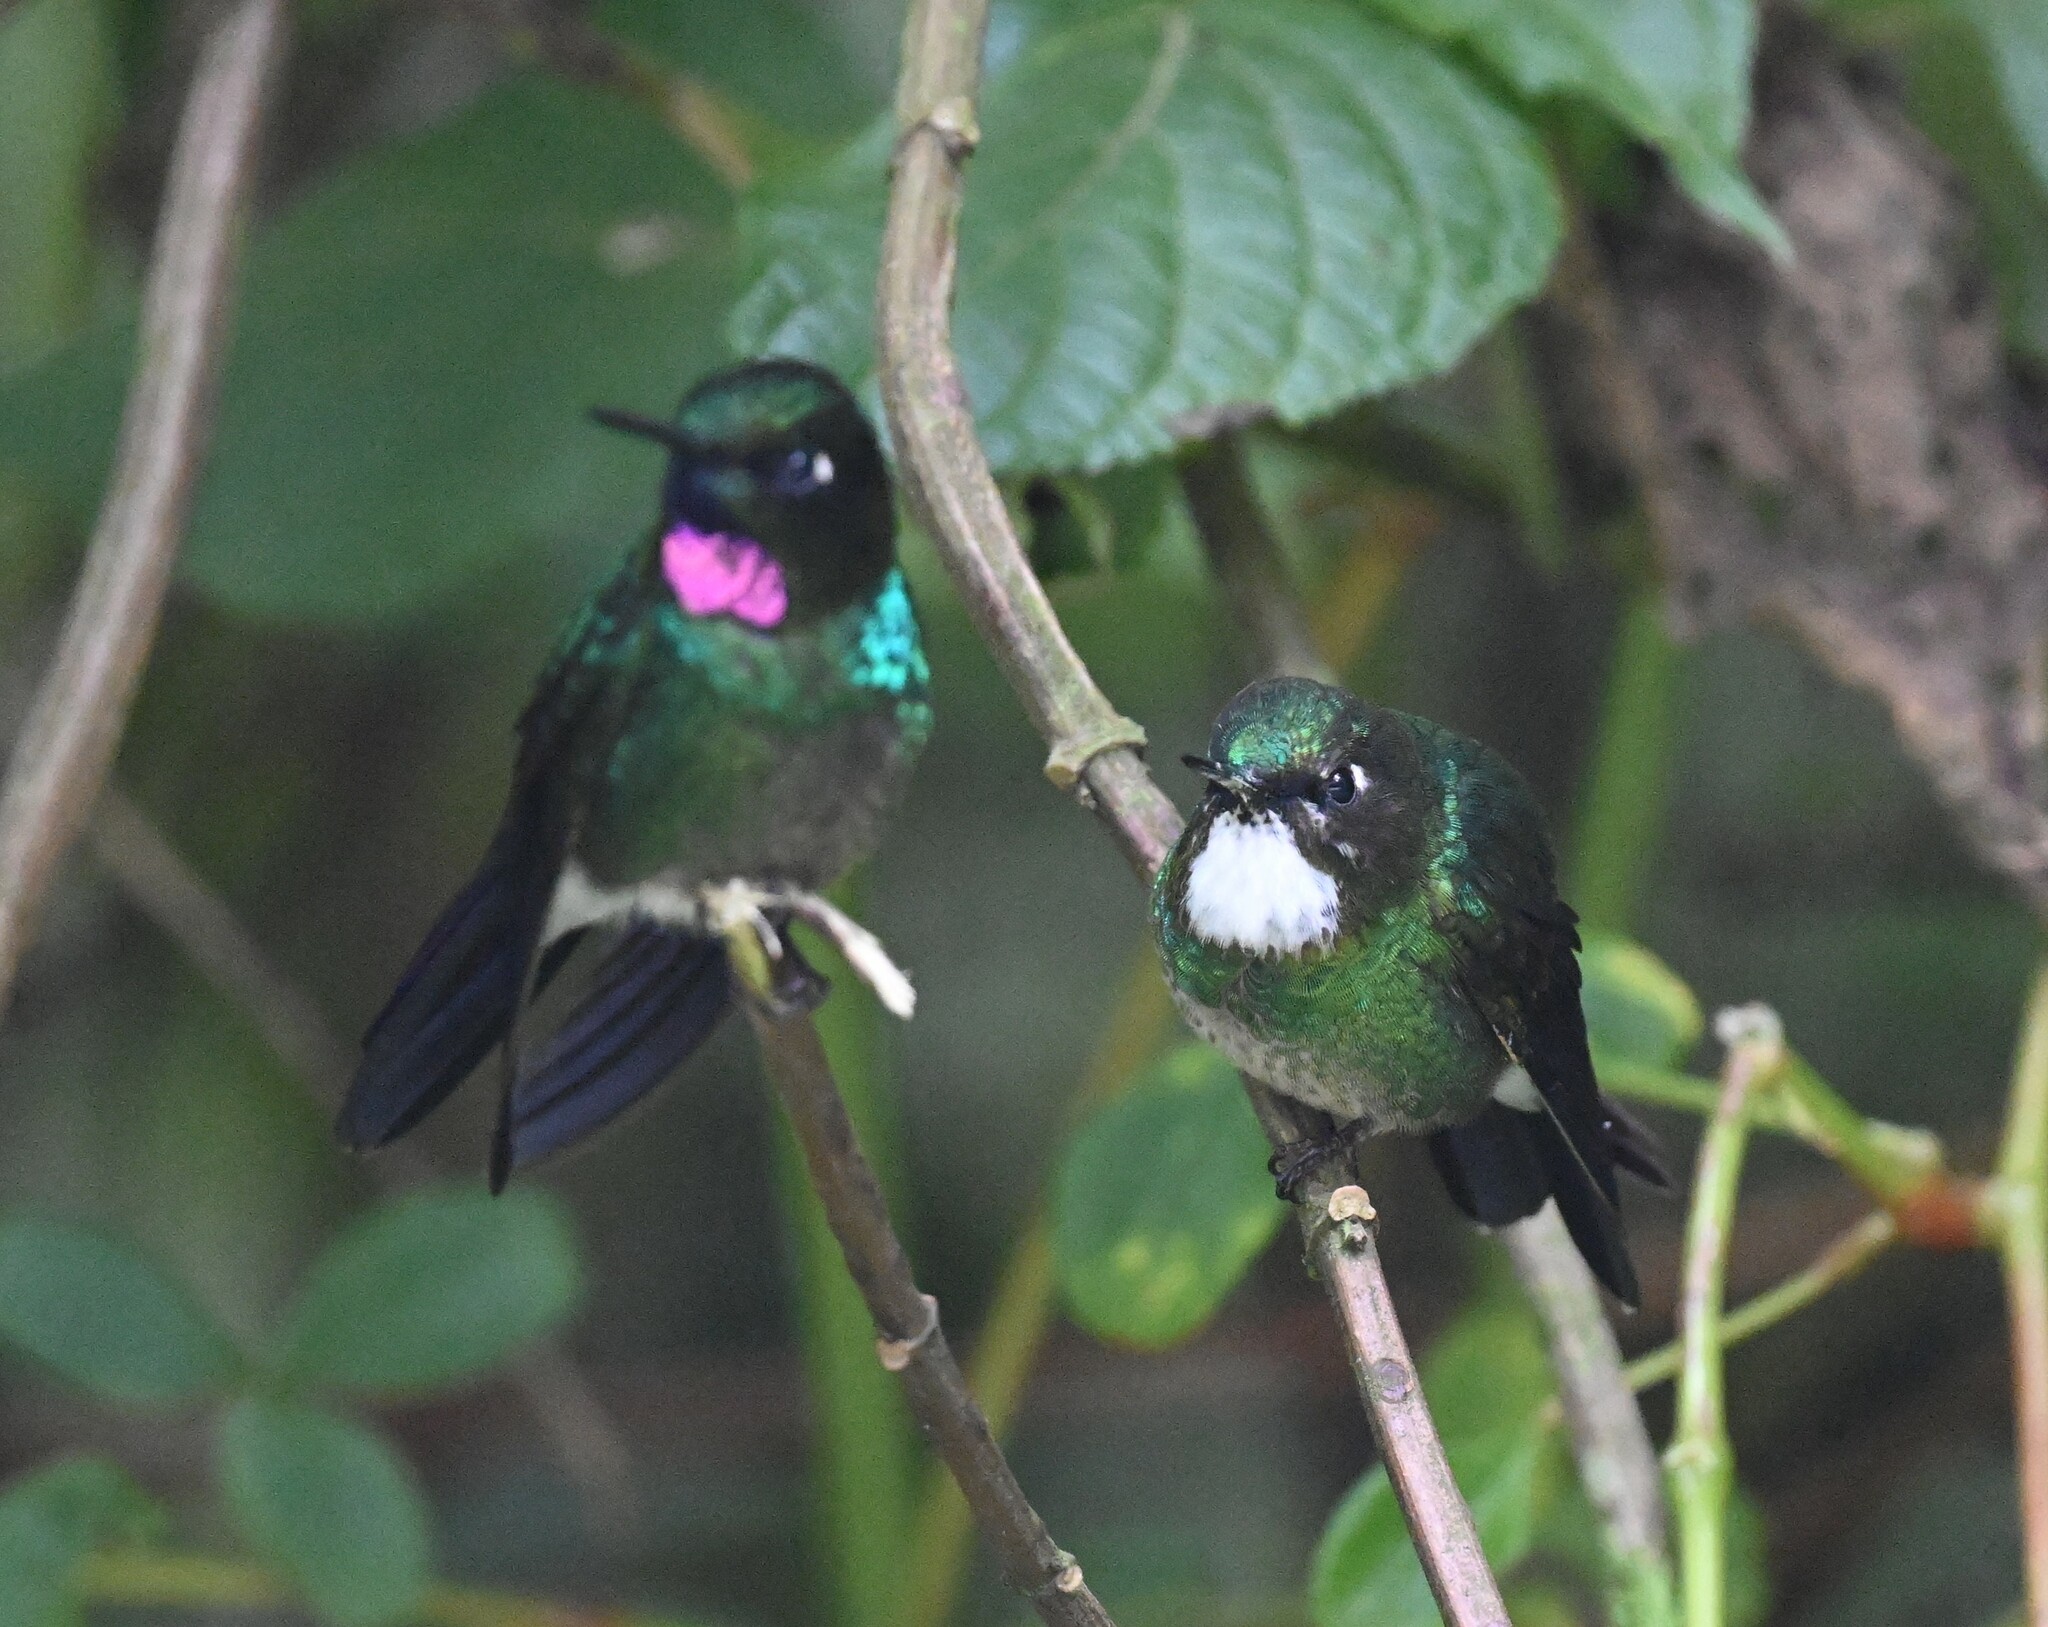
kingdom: Animalia
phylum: Chordata
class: Aves
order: Apodiformes
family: Trochilidae
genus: Heliangelus
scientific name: Heliangelus exortis
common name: Tourmaline sunangel
